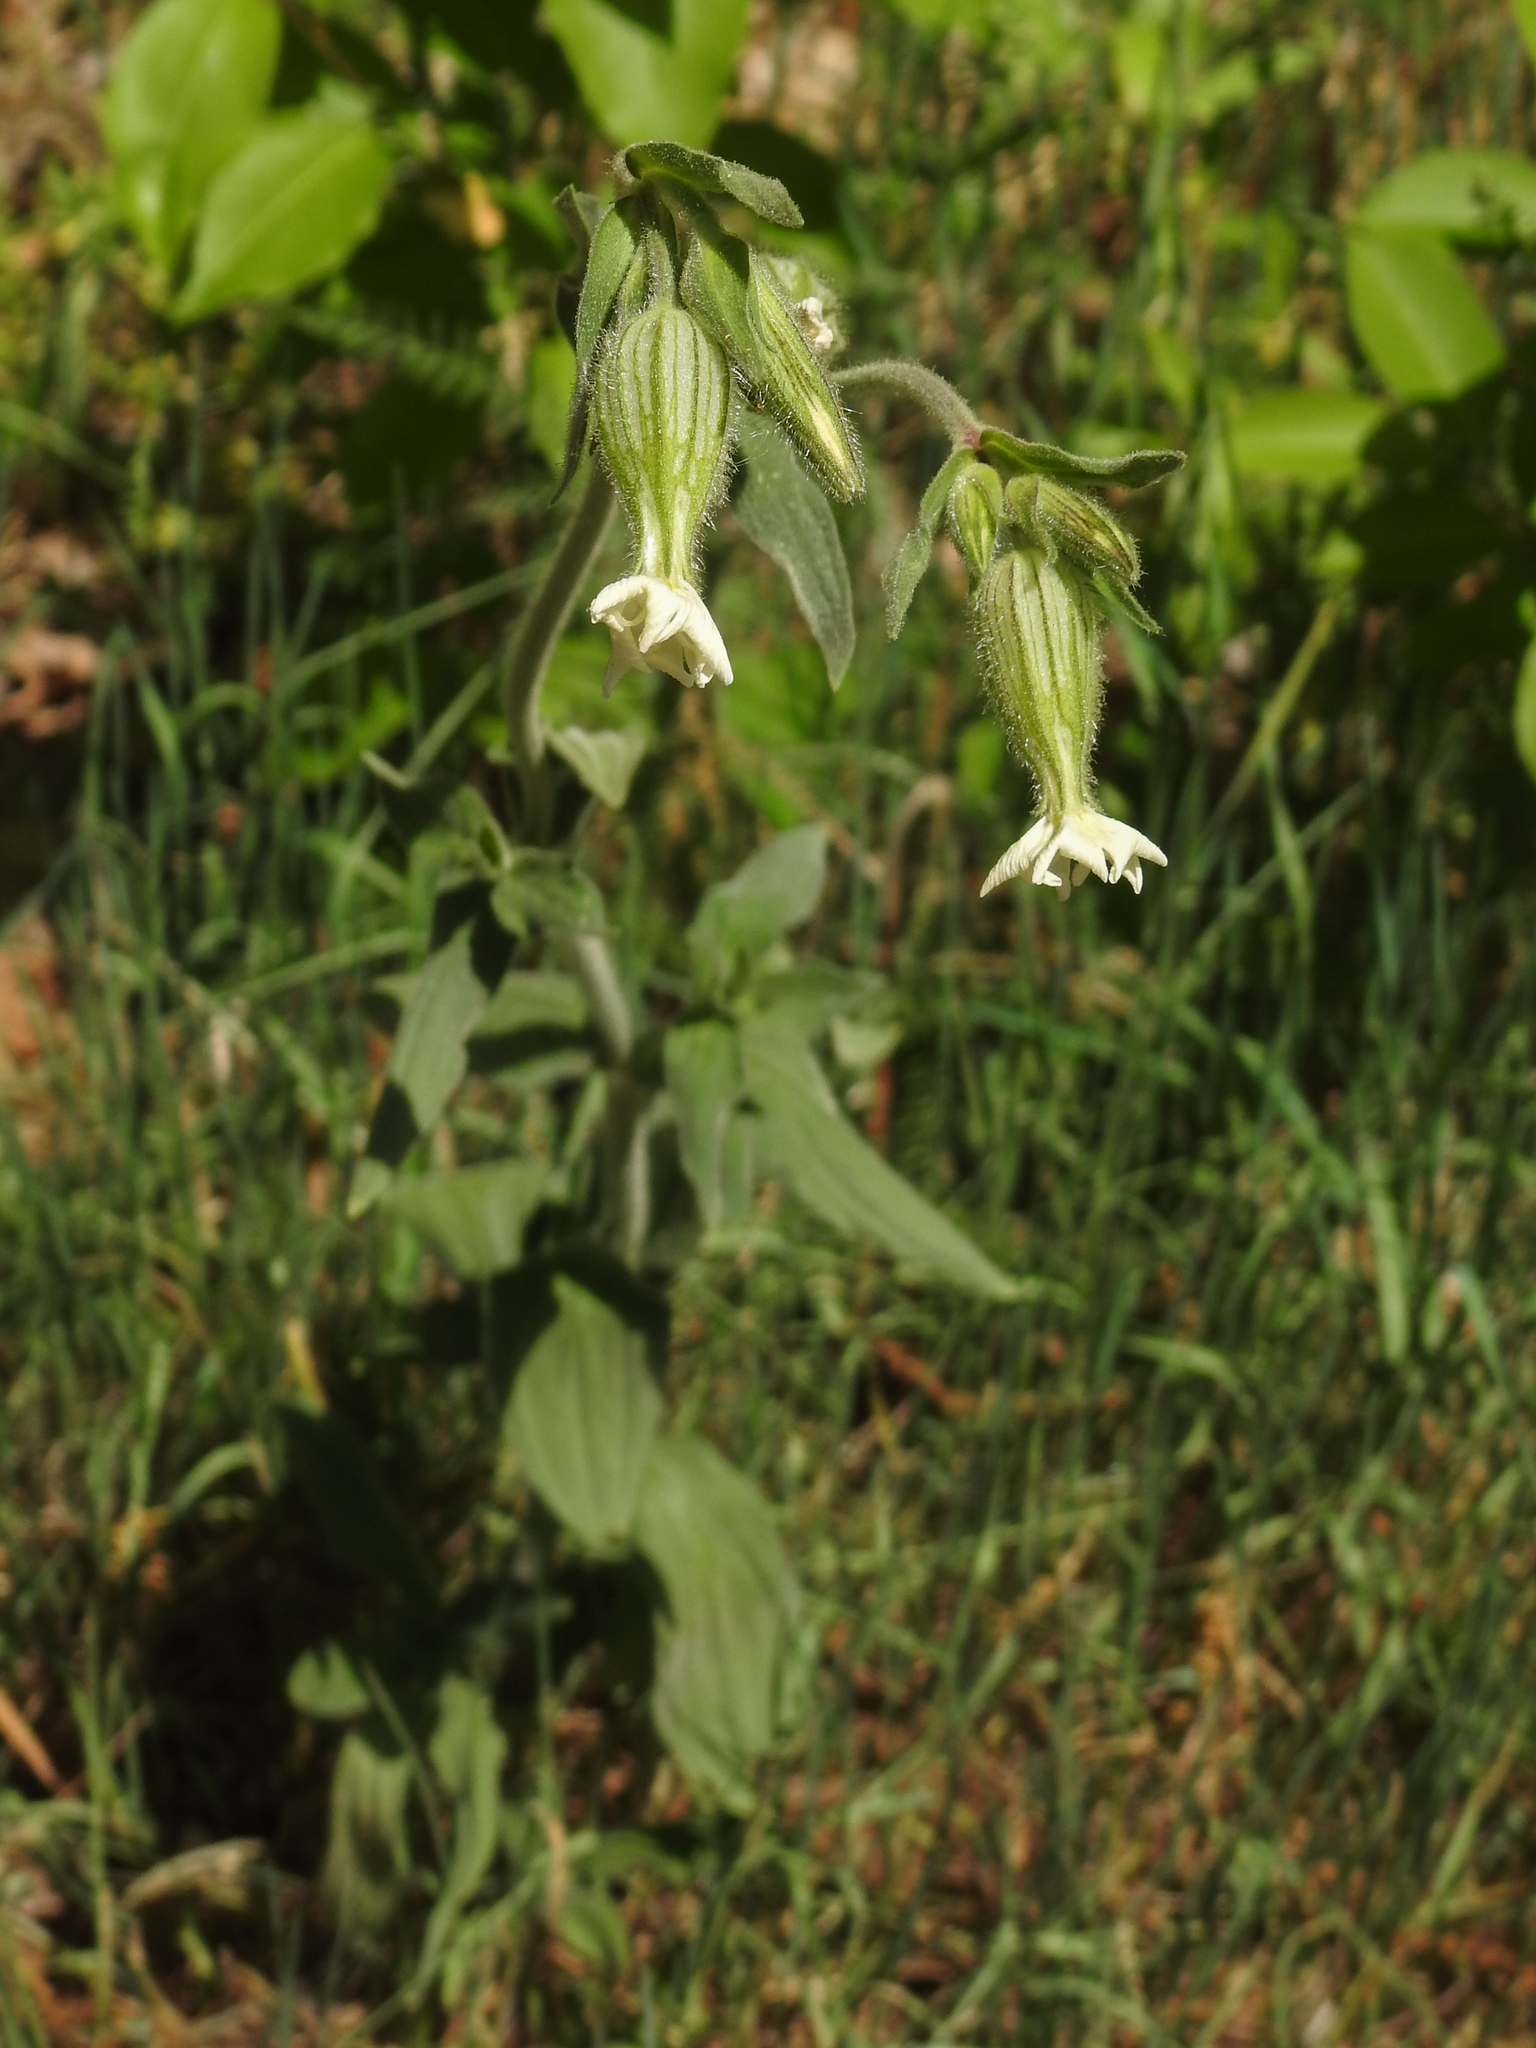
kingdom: Plantae
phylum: Tracheophyta
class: Magnoliopsida
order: Caryophyllales
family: Caryophyllaceae
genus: Silene
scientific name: Silene latifolia
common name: White campion
